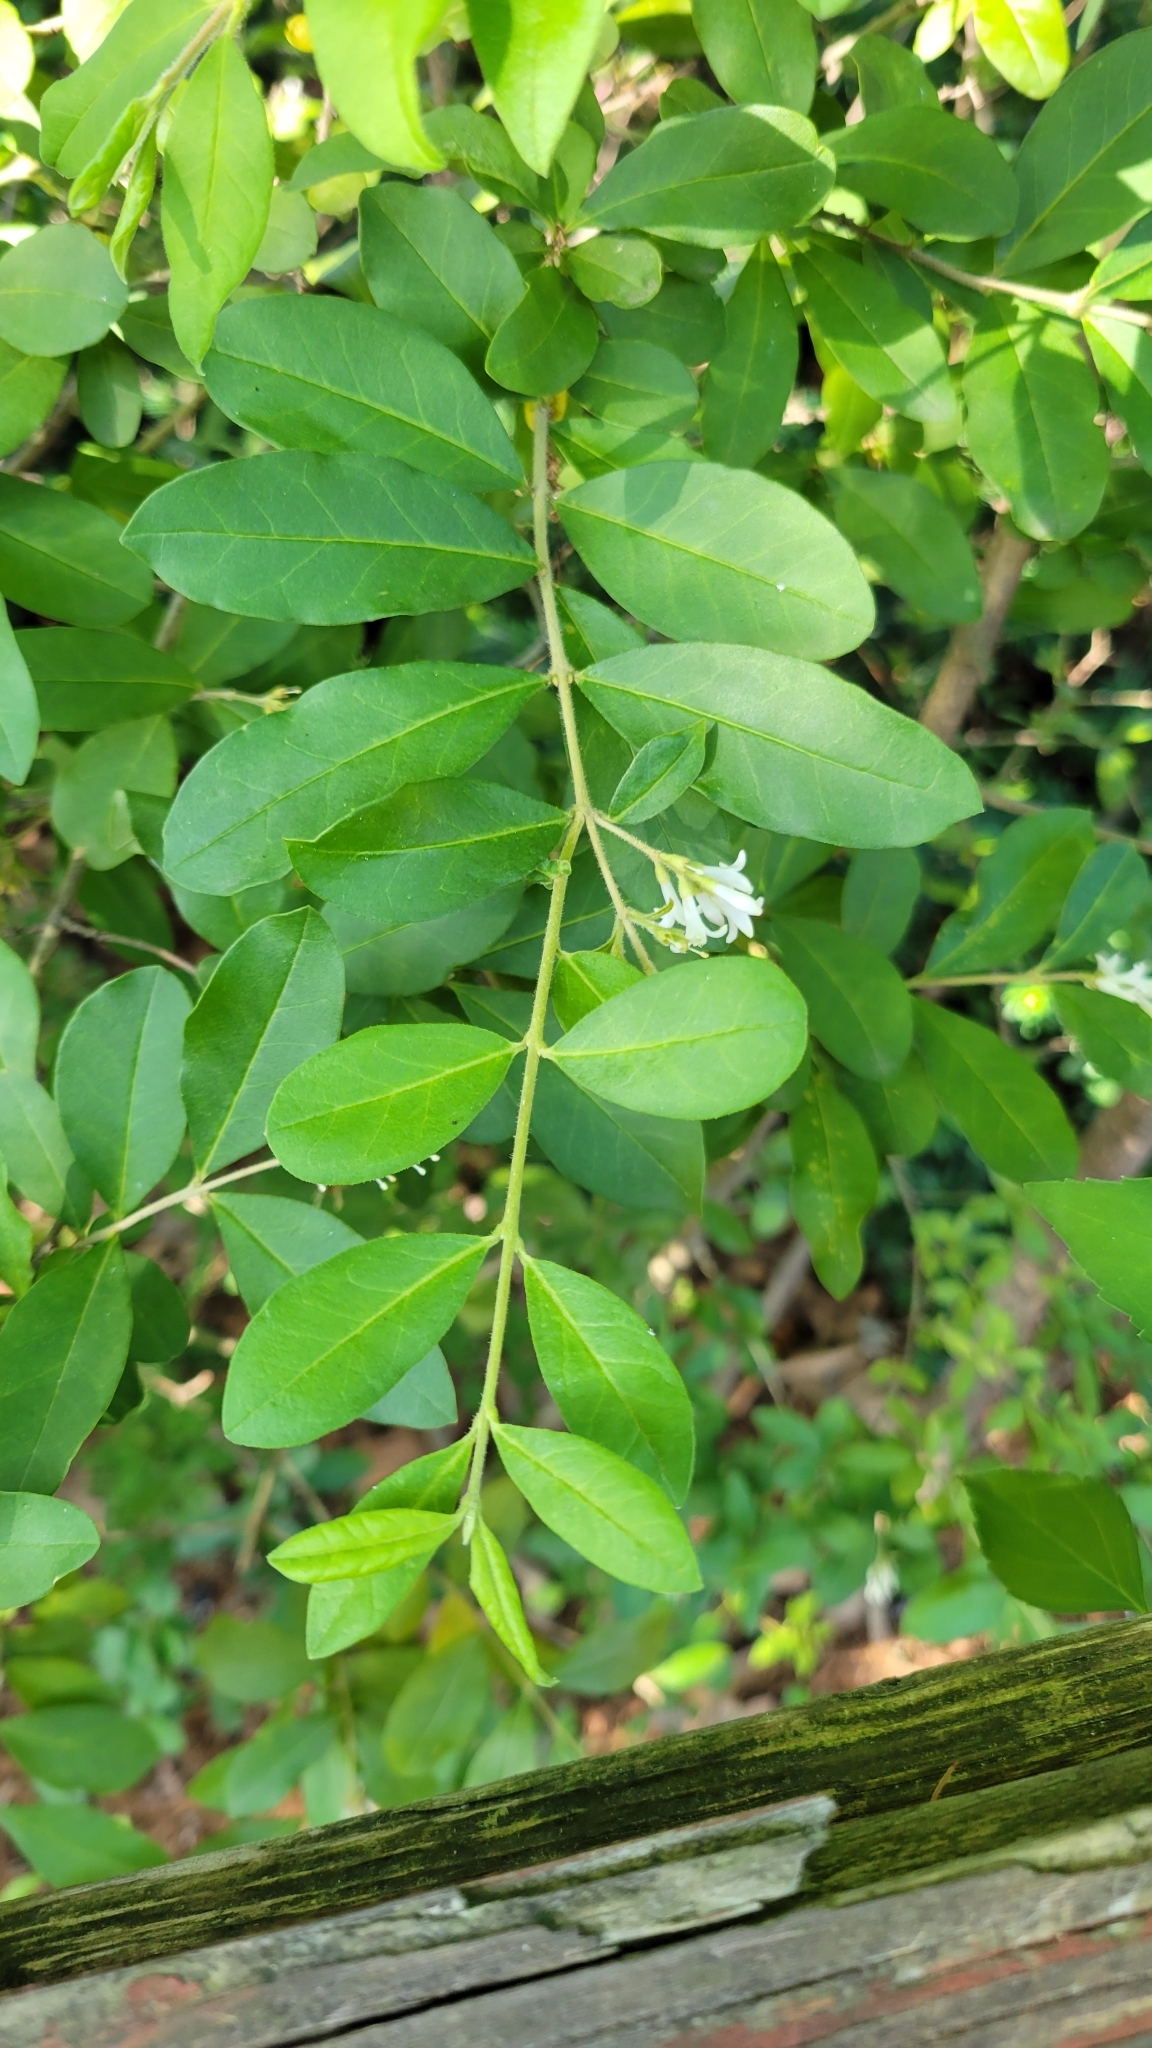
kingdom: Plantae
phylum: Tracheophyta
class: Magnoliopsida
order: Lamiales
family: Oleaceae
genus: Ligustrum
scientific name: Ligustrum obtusifolium
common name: Border privet
